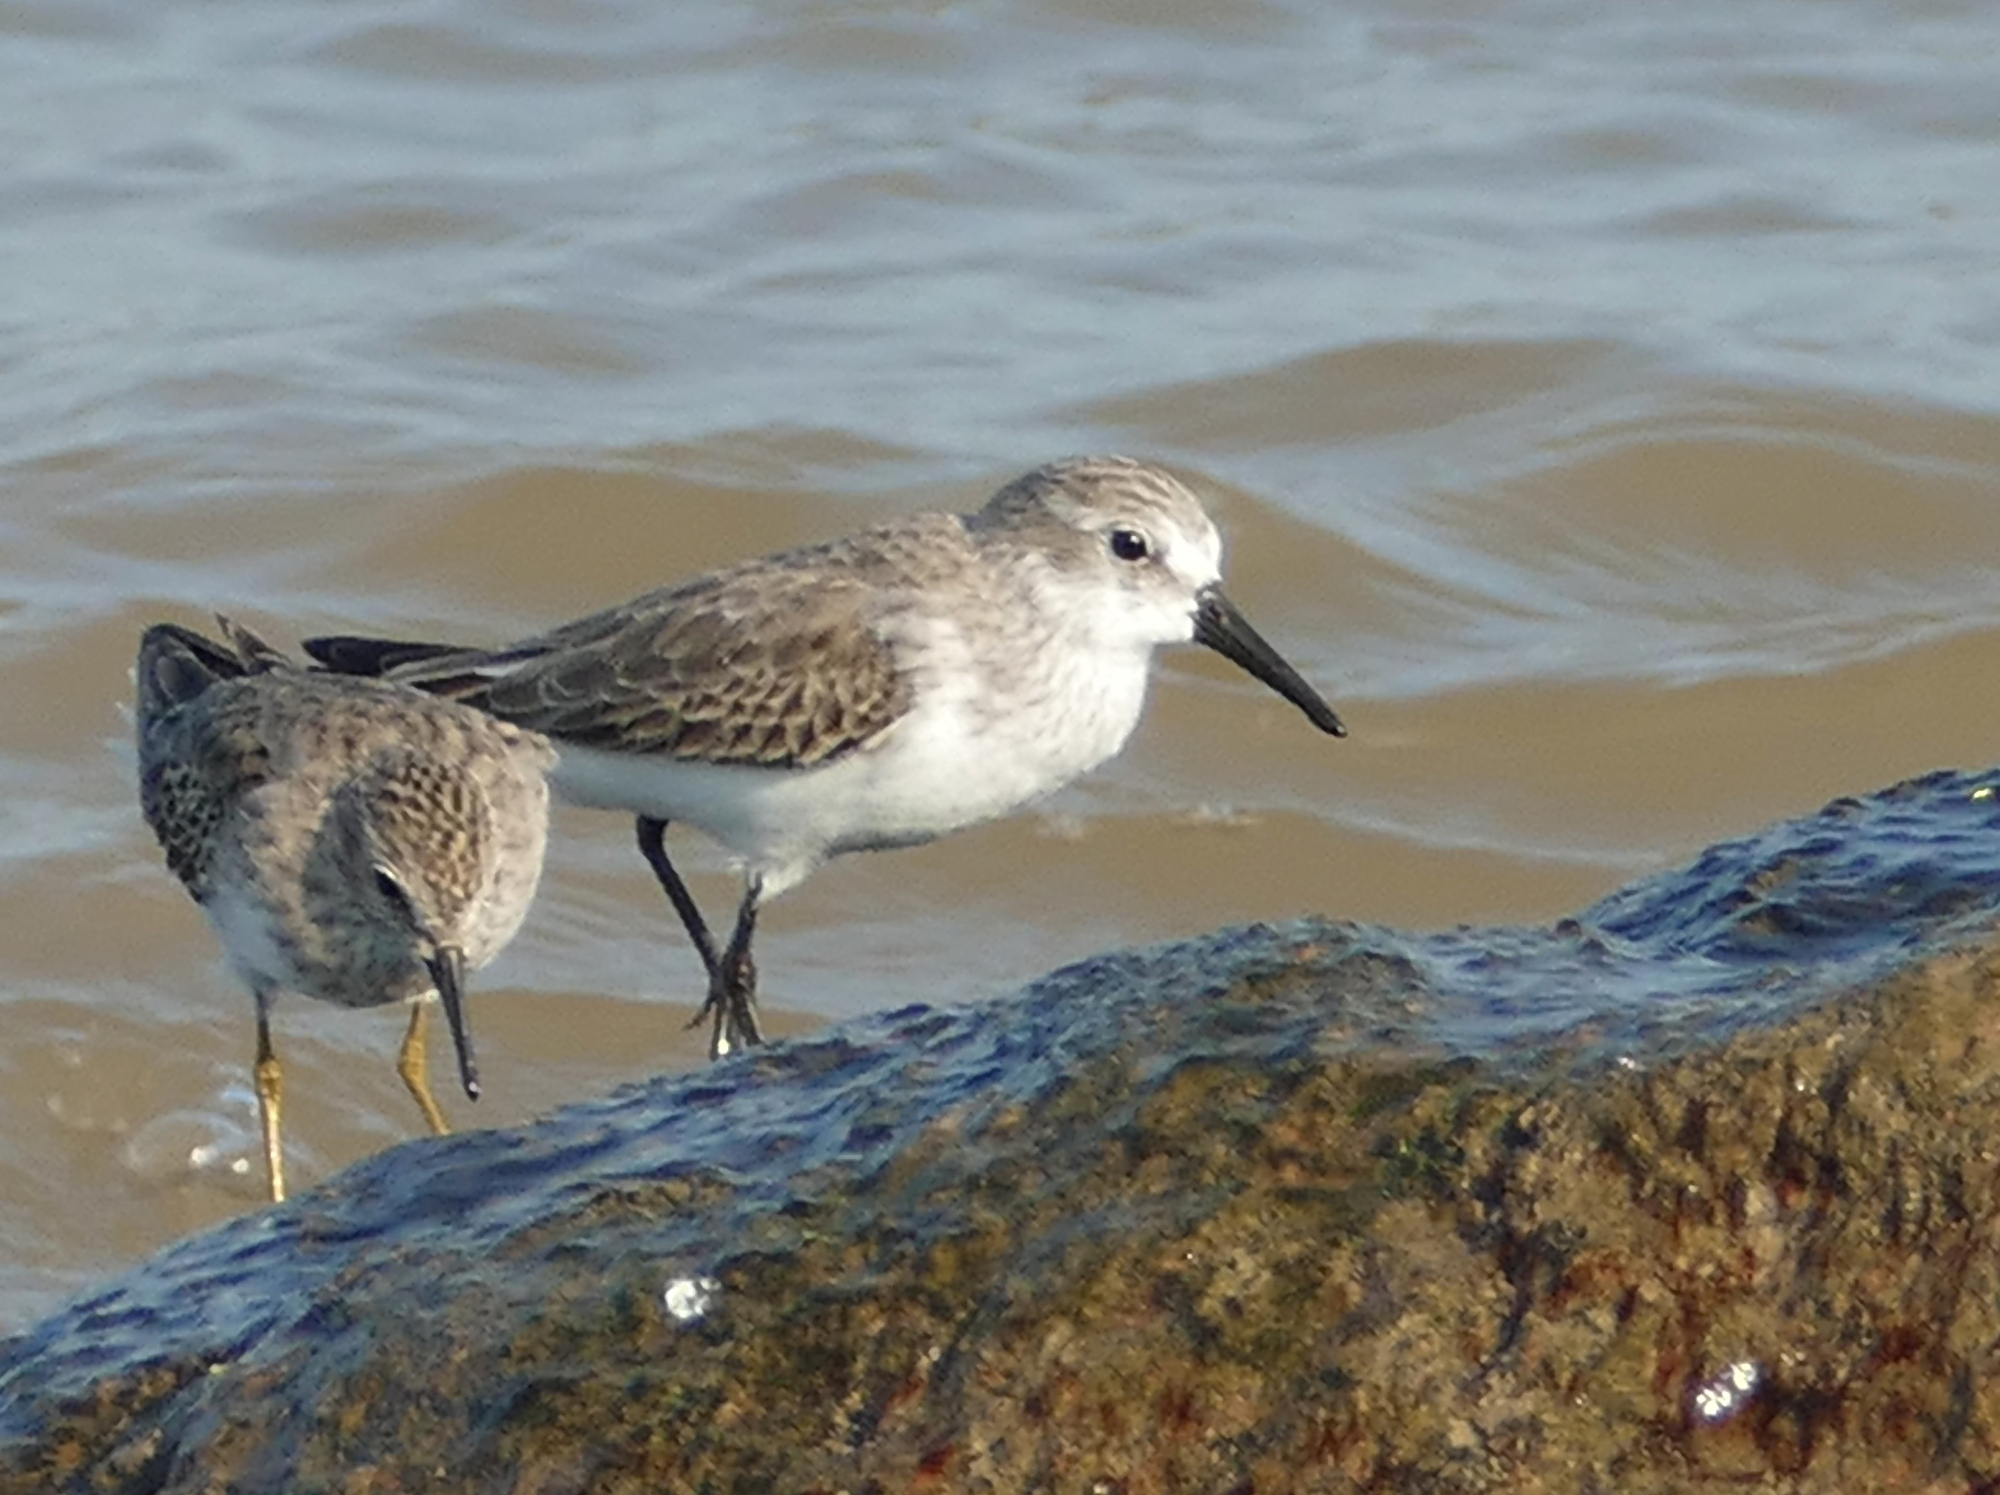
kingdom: Animalia
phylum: Chordata
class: Aves
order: Charadriiformes
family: Scolopacidae
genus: Calidris
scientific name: Calidris mauri
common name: Western sandpiper
